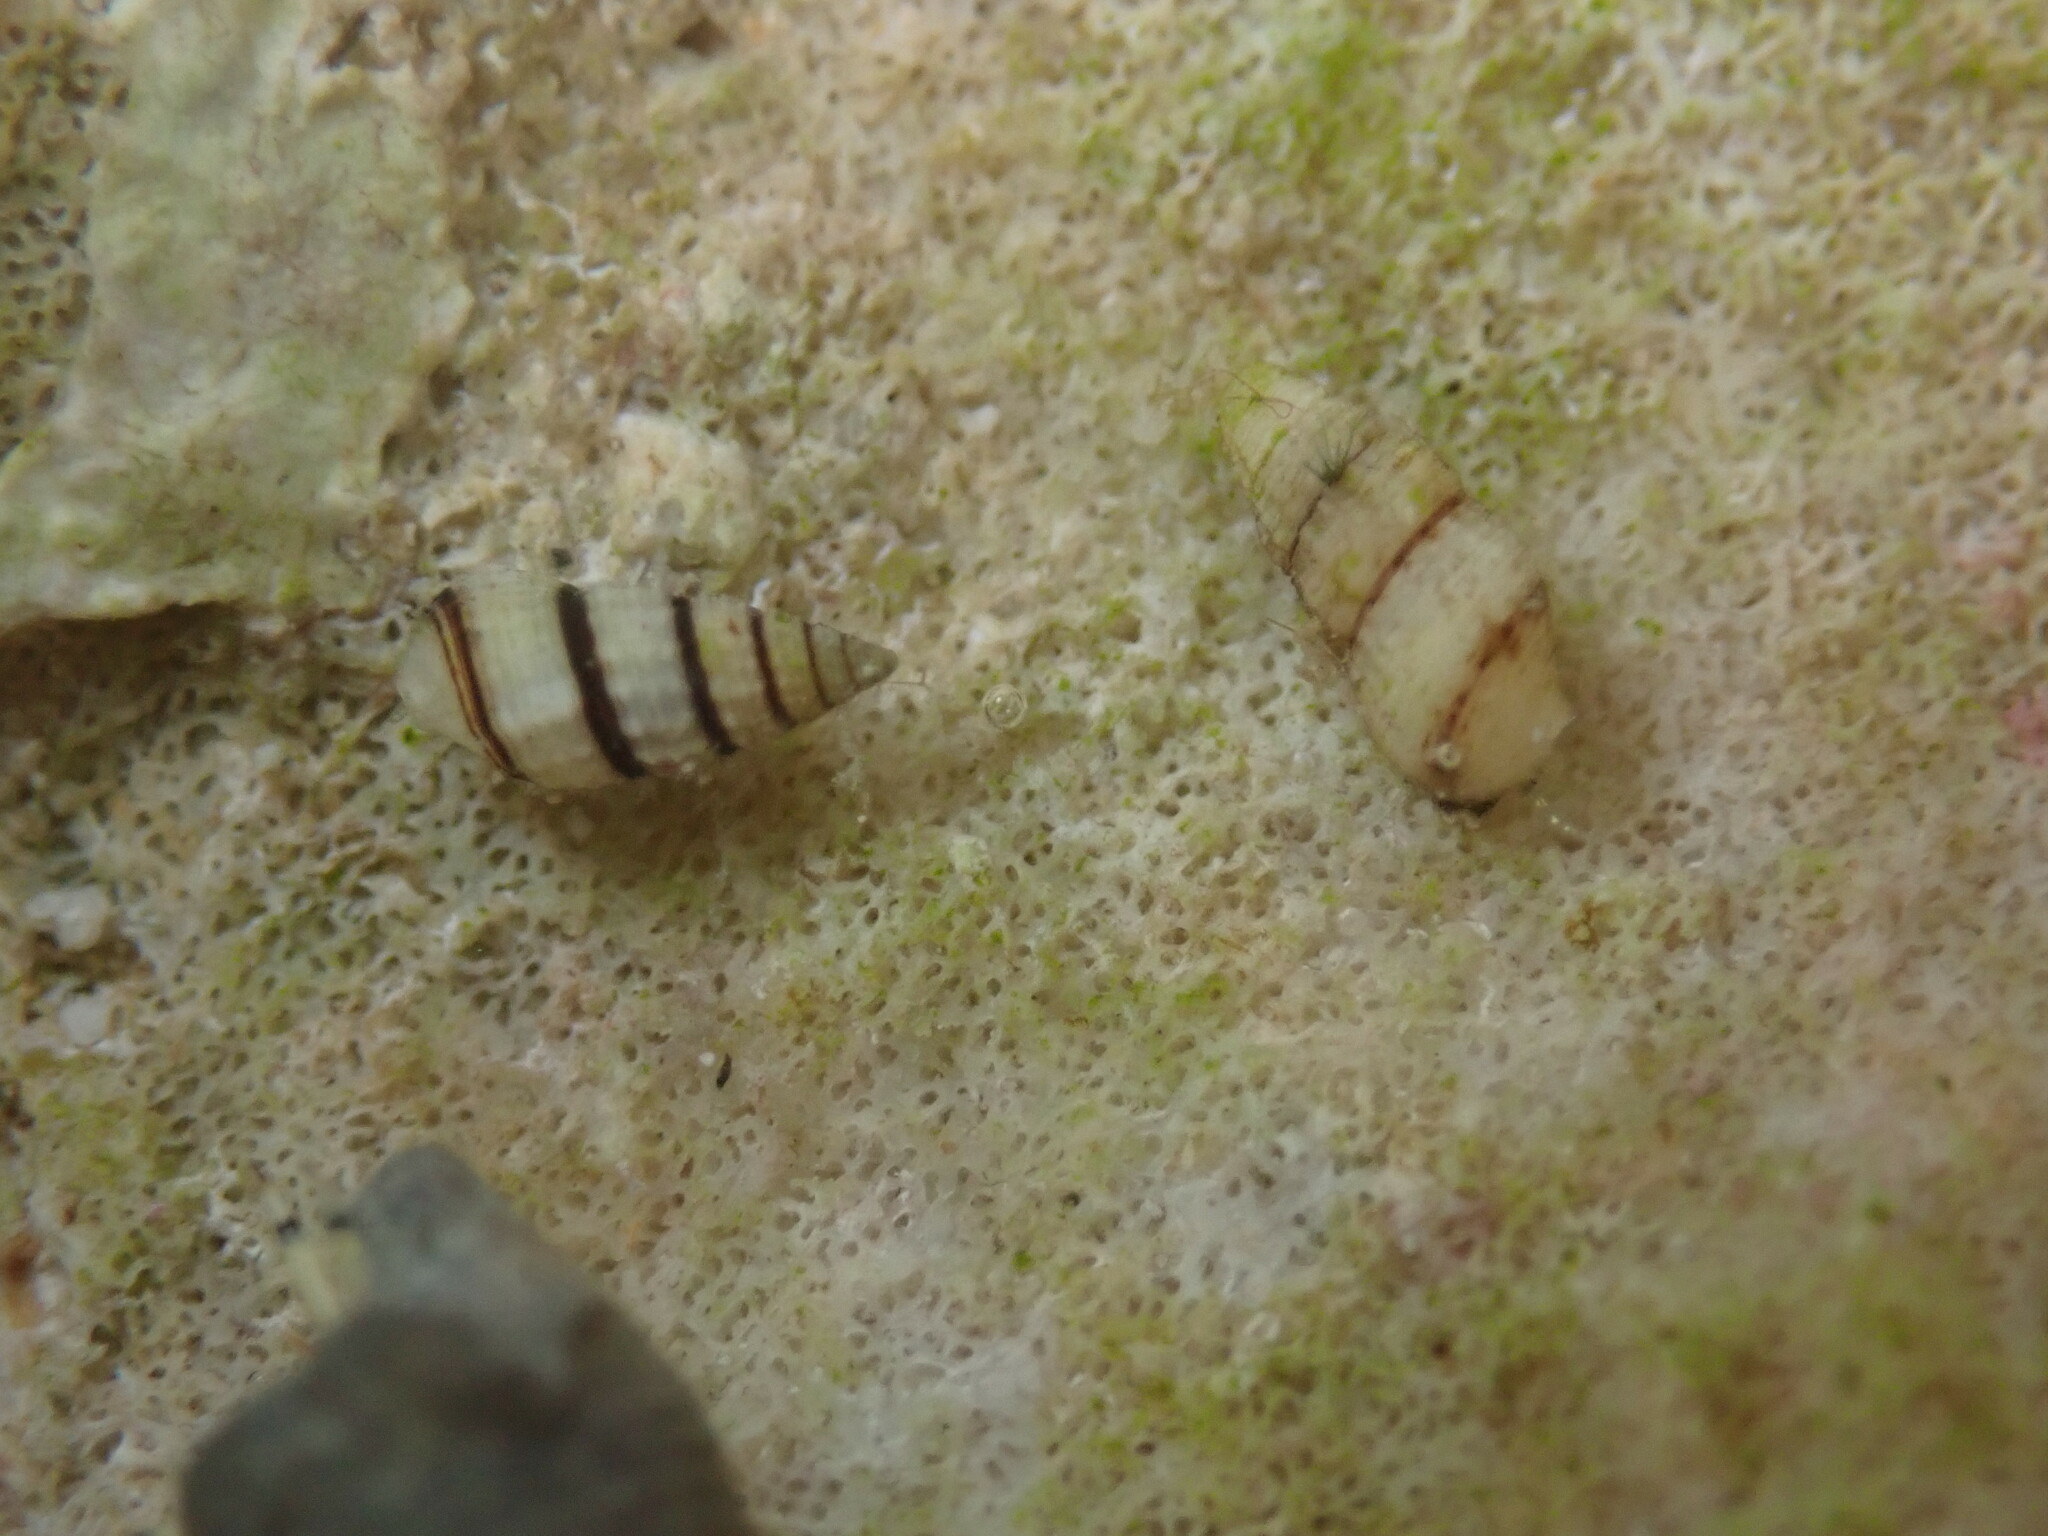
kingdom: Animalia
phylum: Mollusca
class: Gastropoda
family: Cerithiidae
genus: Cerithium
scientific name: Cerithium zebrum
